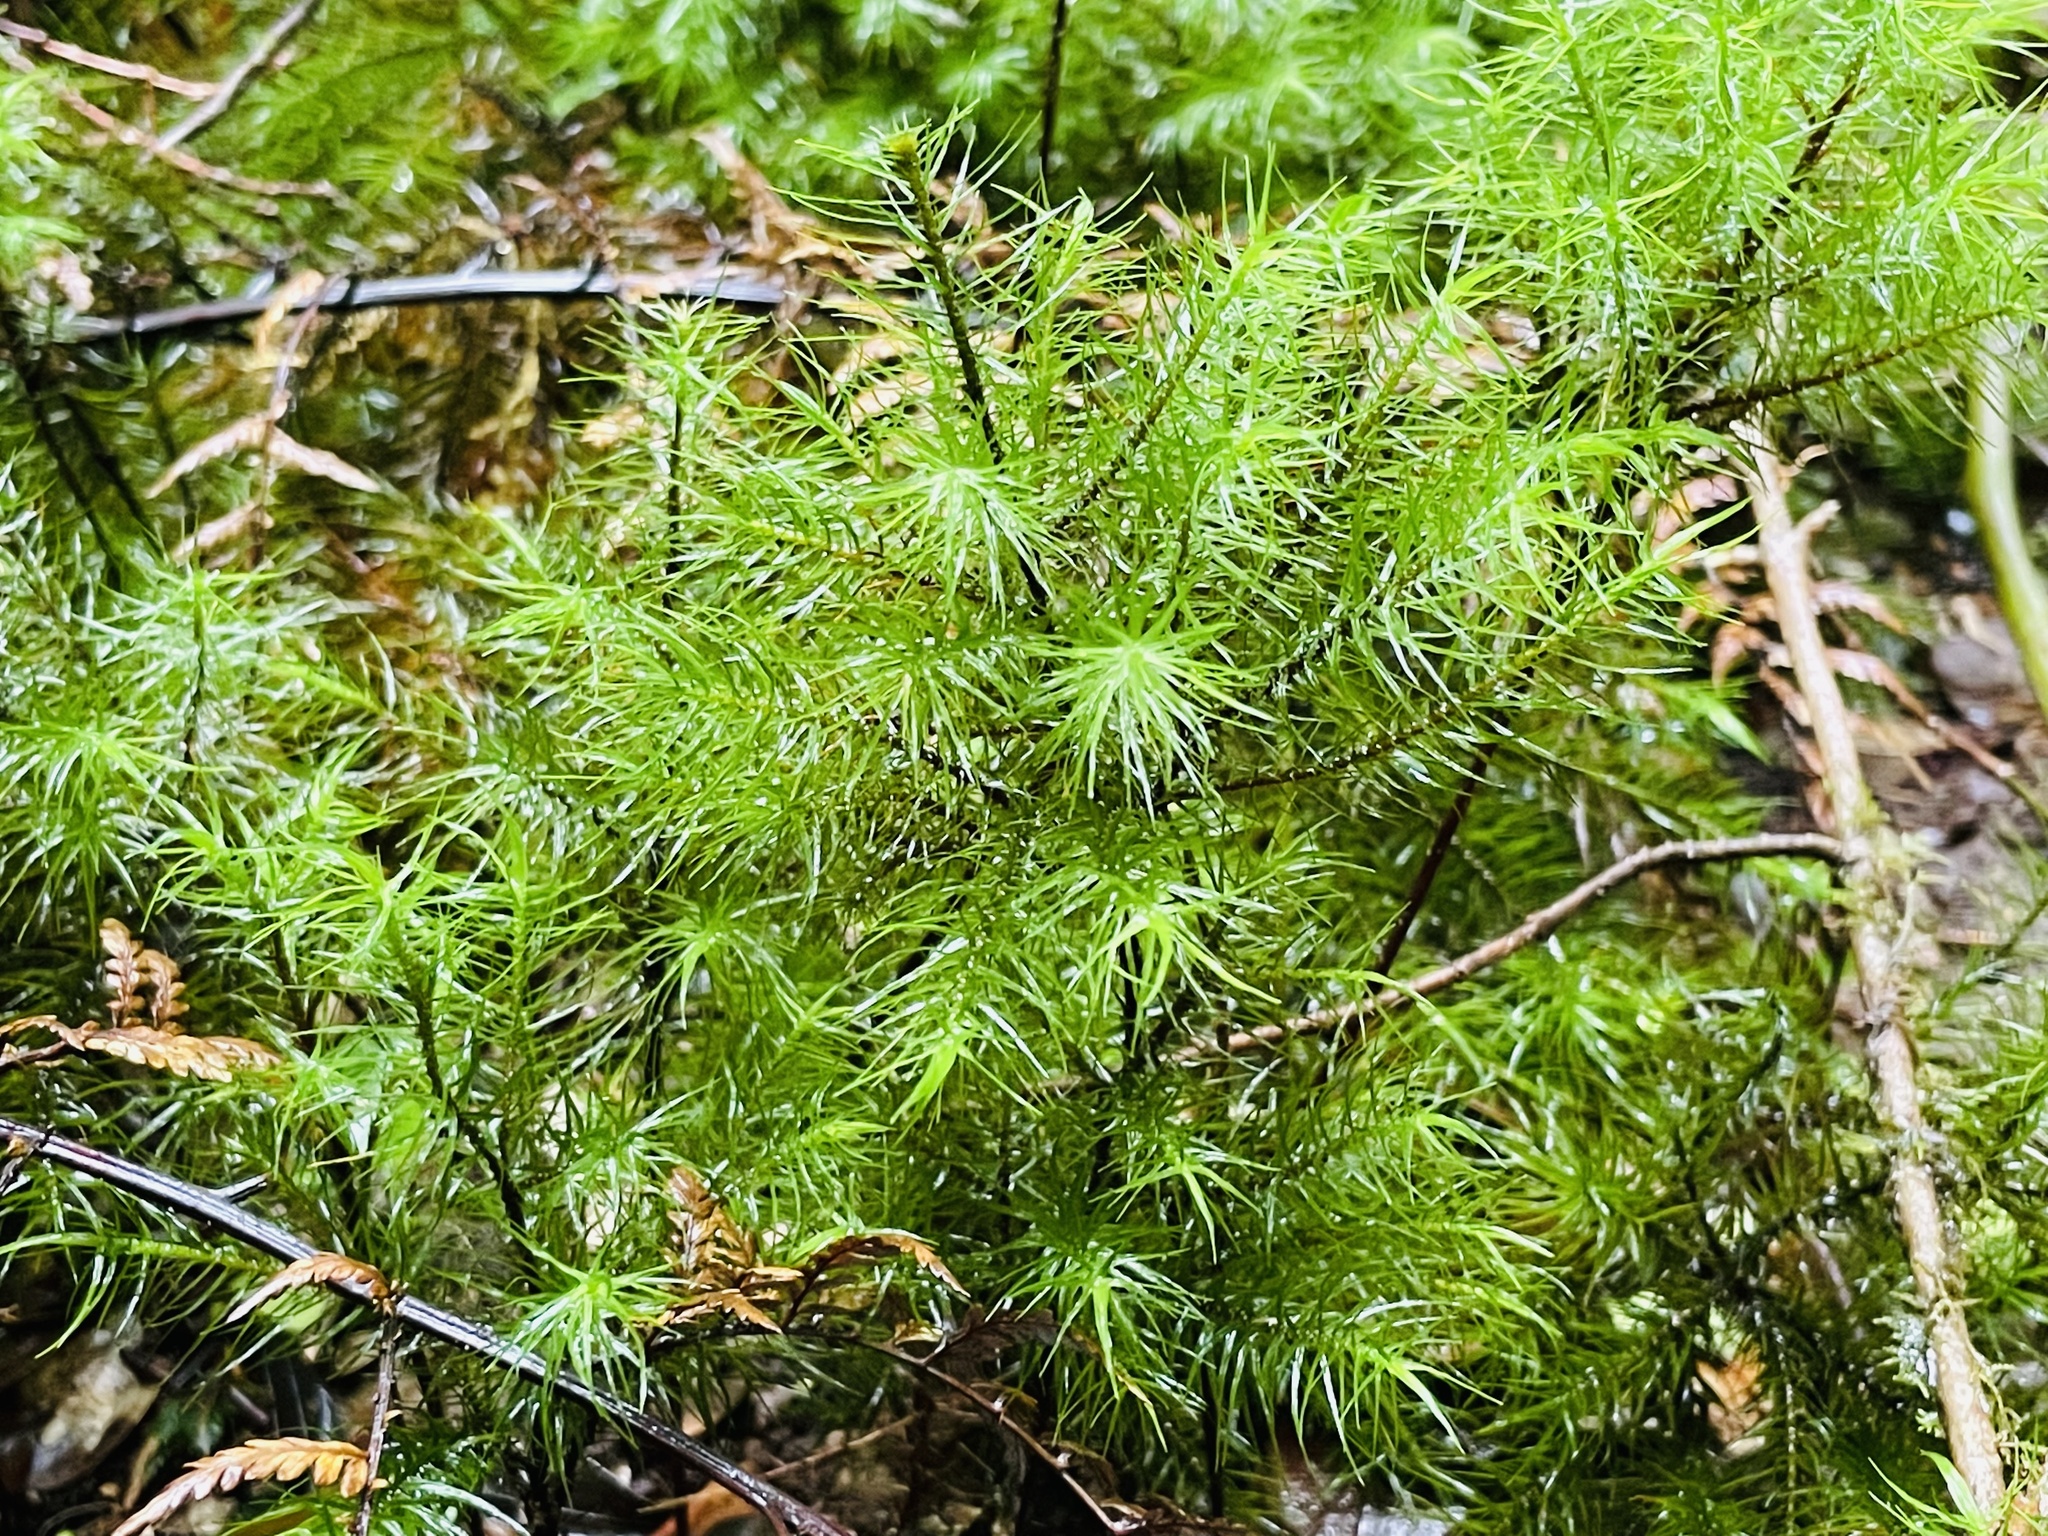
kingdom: Plantae
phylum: Bryophyta
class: Polytrichopsida
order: Polytrichales
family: Polytrichaceae
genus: Dendroligotrichum
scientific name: Dendroligotrichum dendroides
